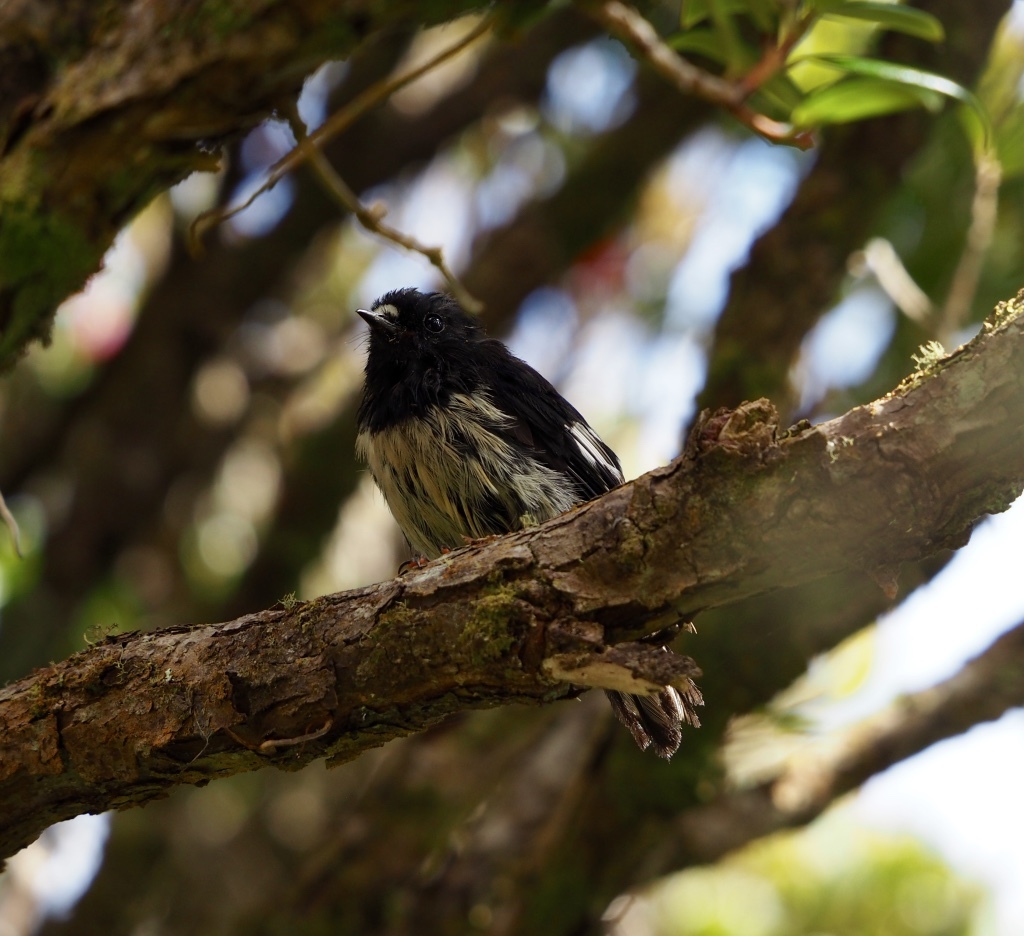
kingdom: Animalia
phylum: Chordata
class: Aves
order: Passeriformes
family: Petroicidae
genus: Petroica
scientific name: Petroica macrocephala
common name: Tomtit
